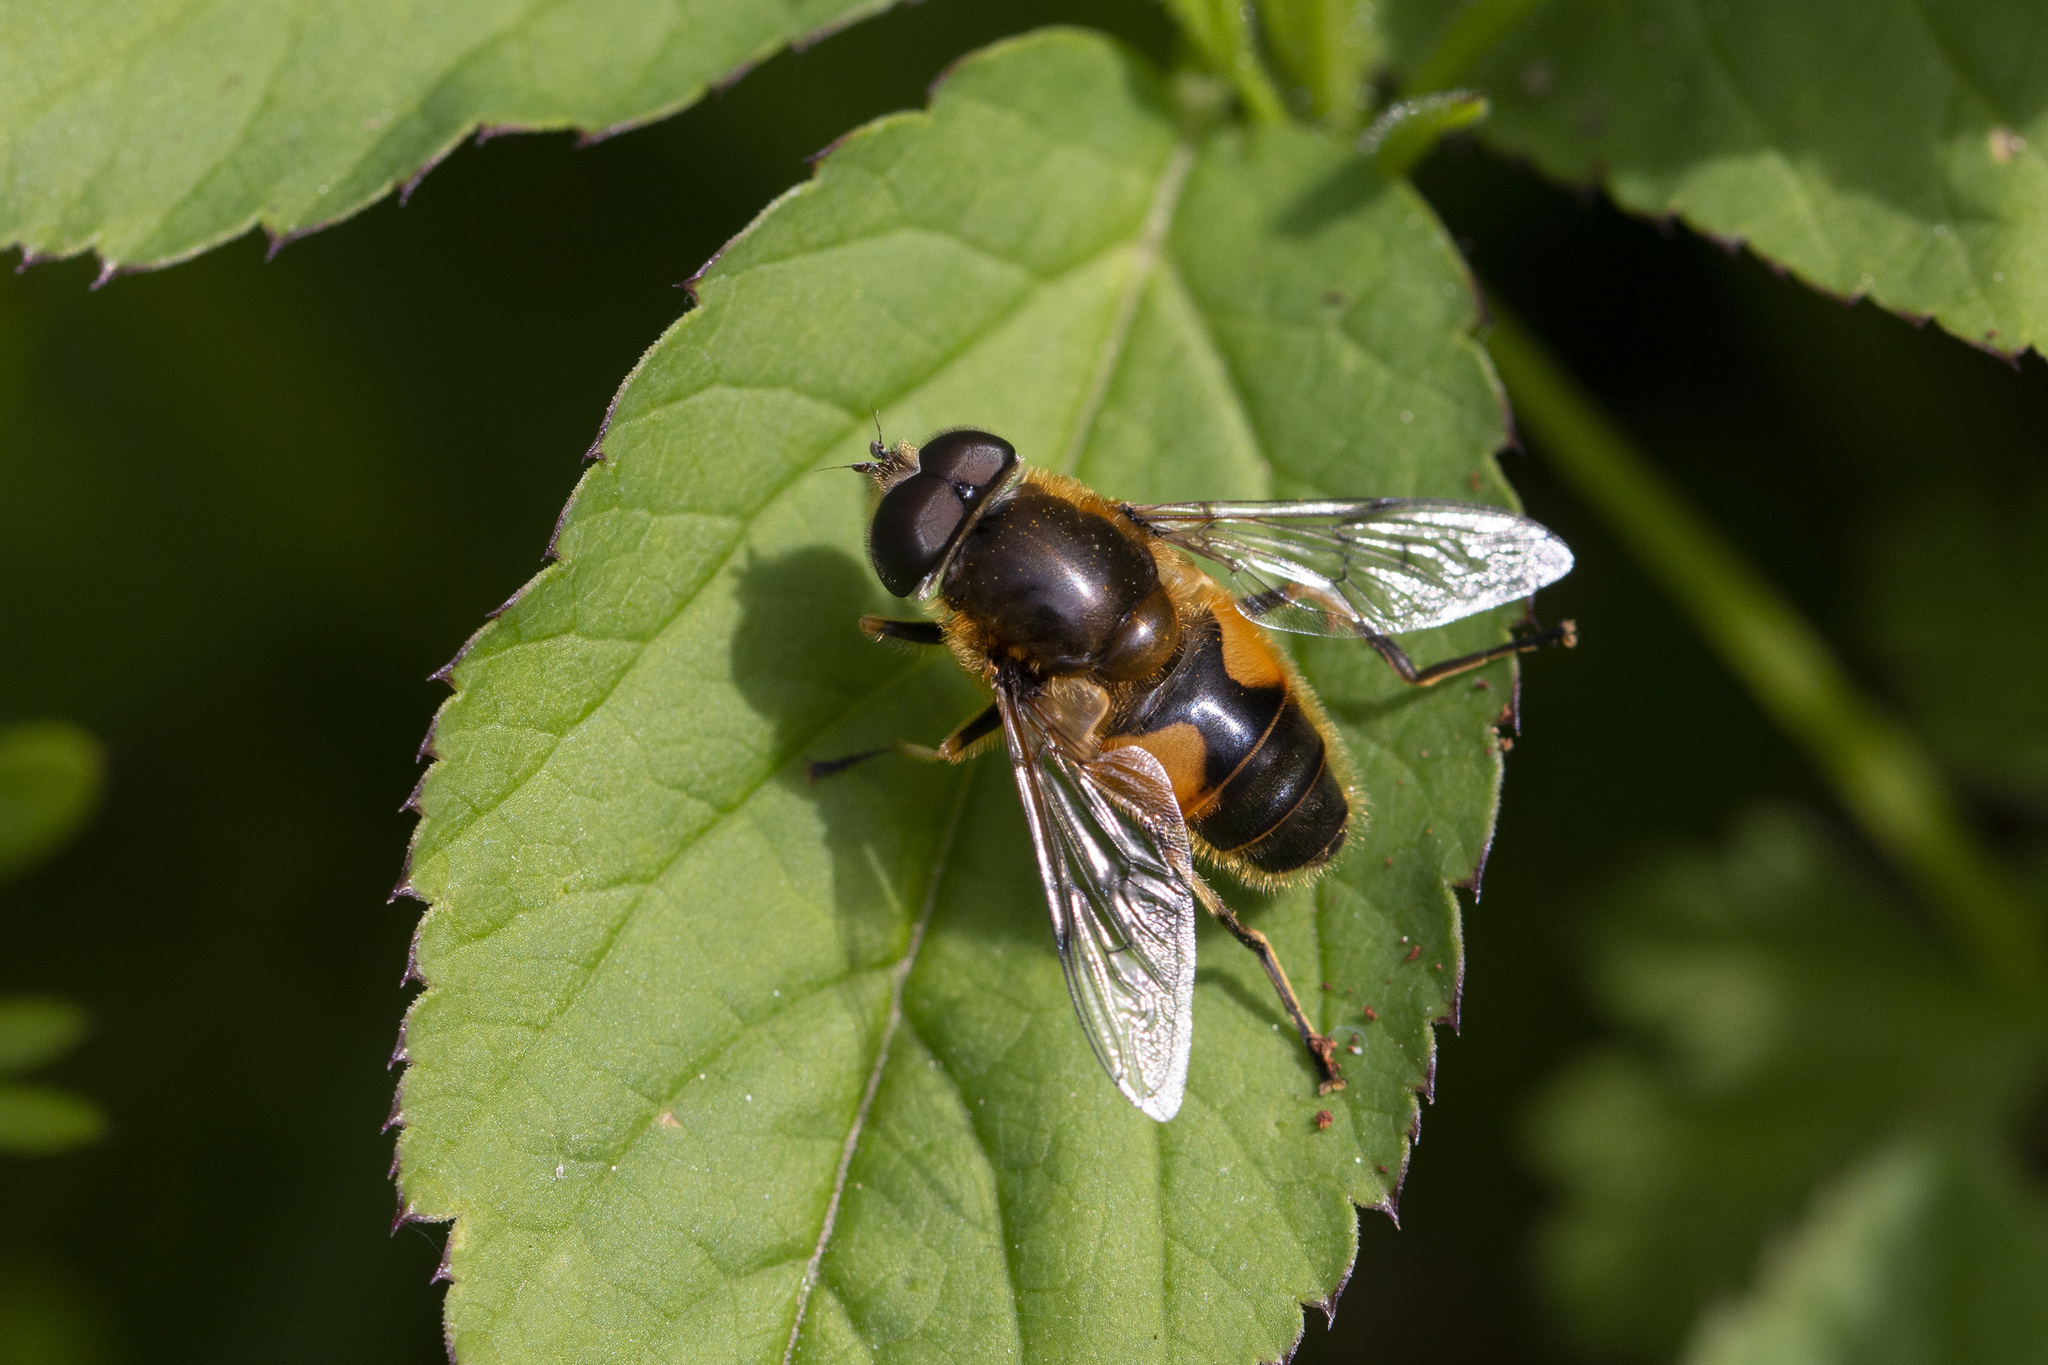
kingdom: Animalia
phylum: Arthropoda
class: Insecta
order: Diptera
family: Syrphidae
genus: Cheilosia
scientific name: Cheilosia morio
